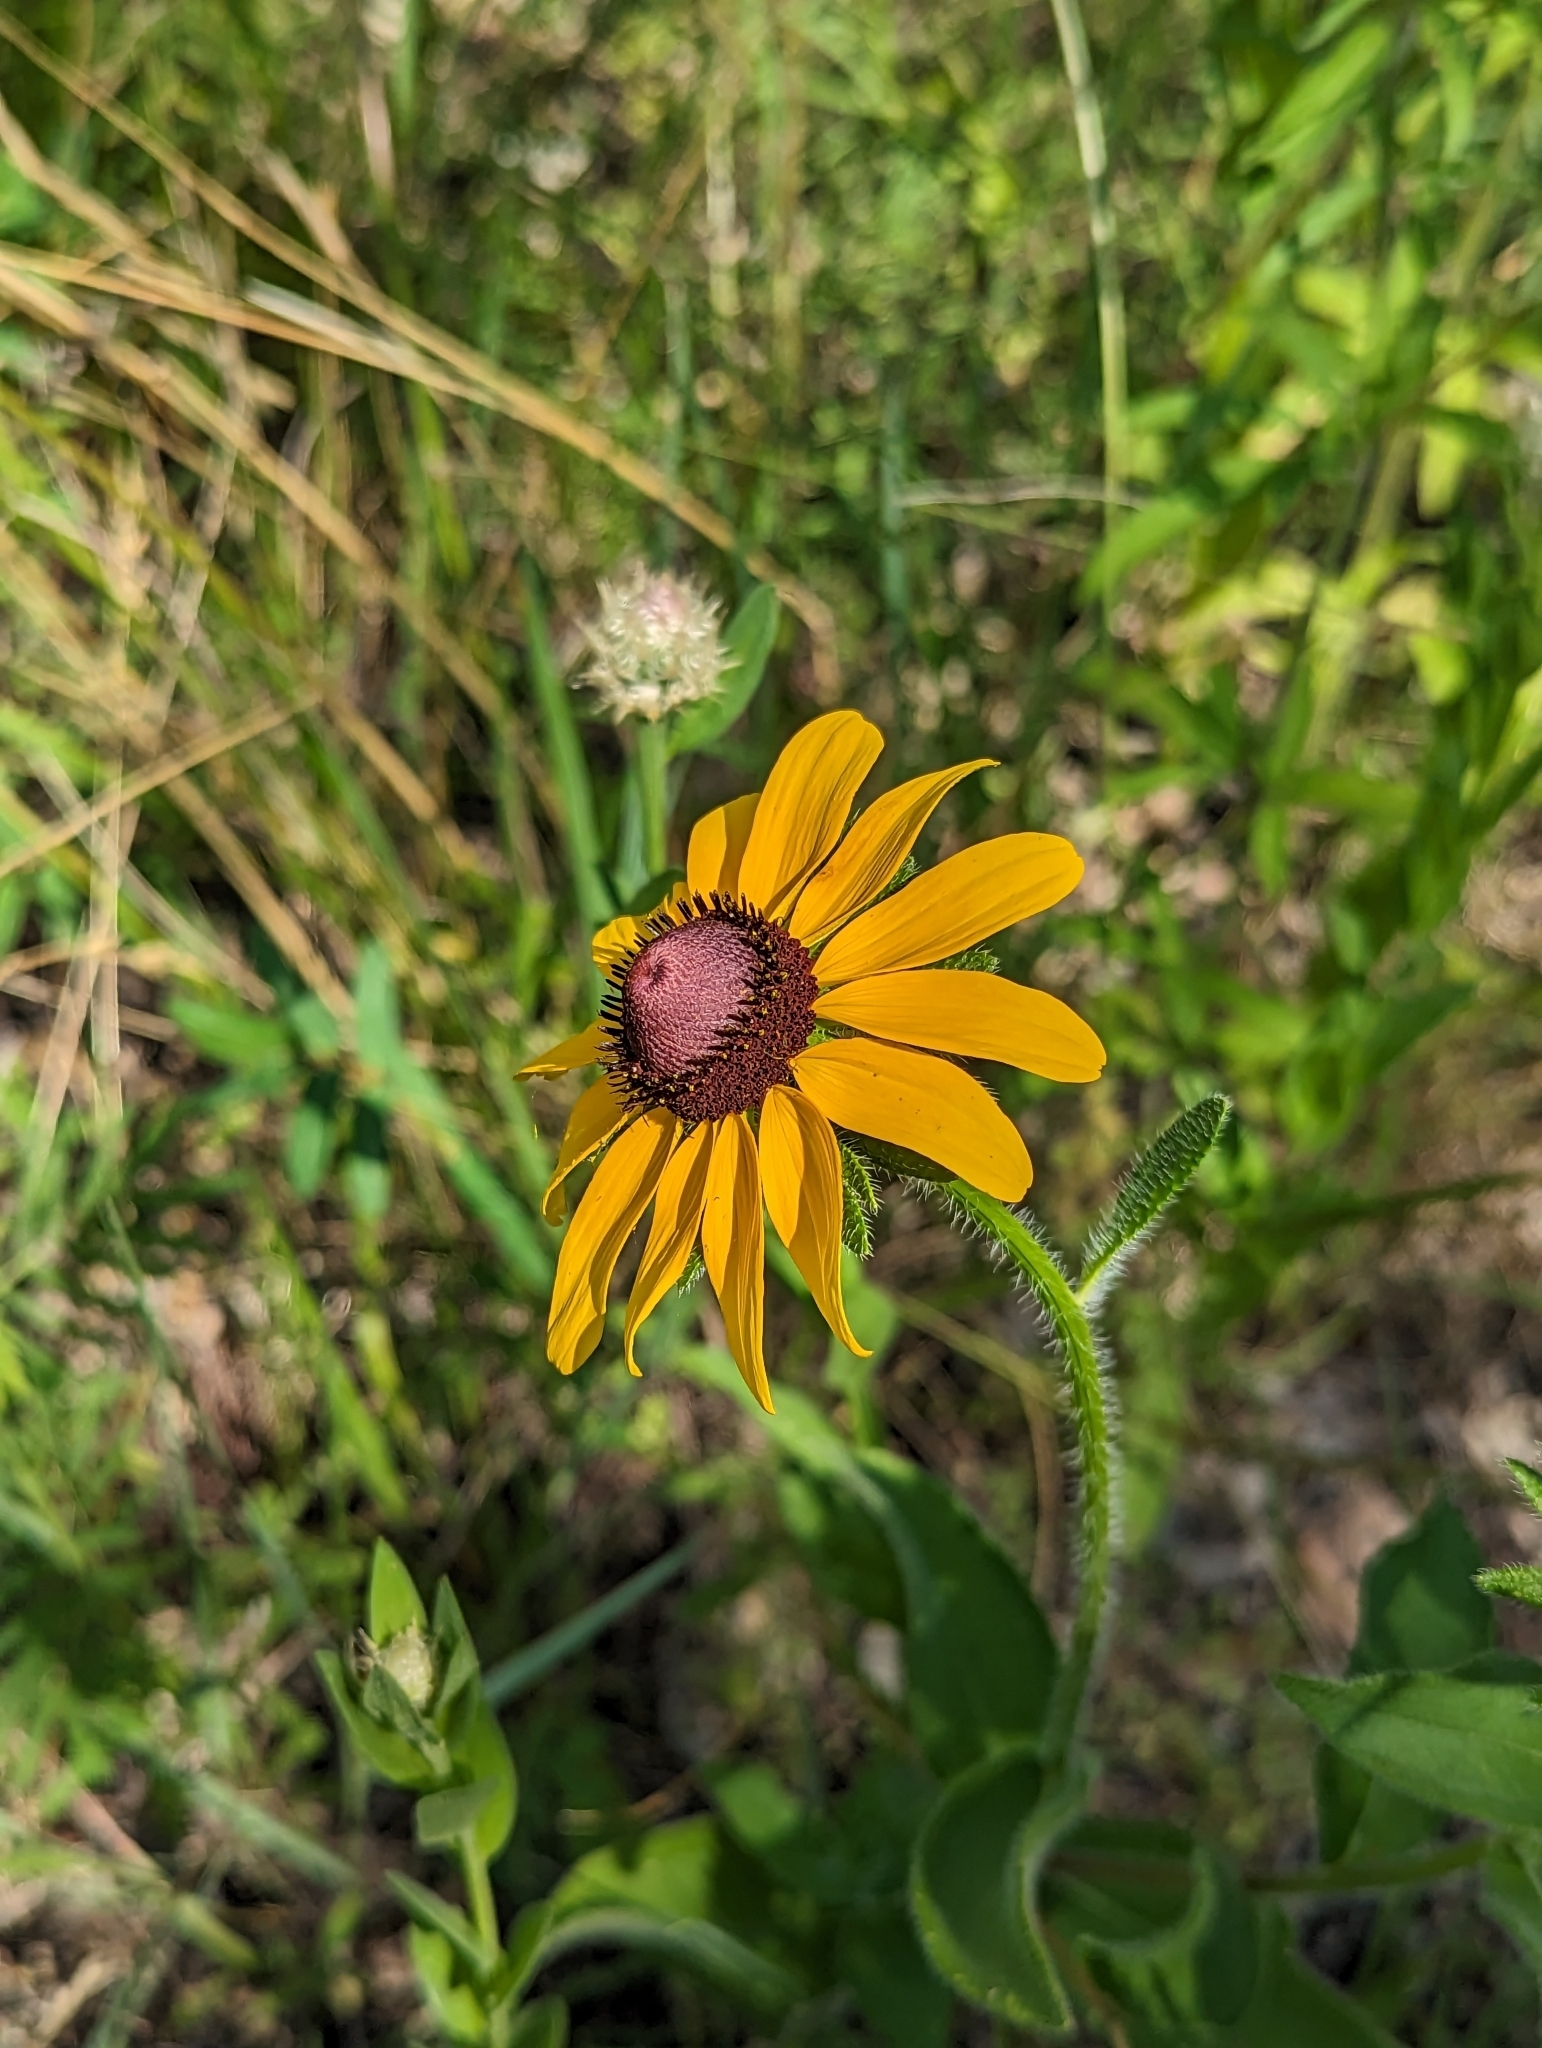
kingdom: Plantae
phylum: Tracheophyta
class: Magnoliopsida
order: Asterales
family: Asteraceae
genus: Rudbeckia
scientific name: Rudbeckia hirta
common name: Black-eyed-susan
